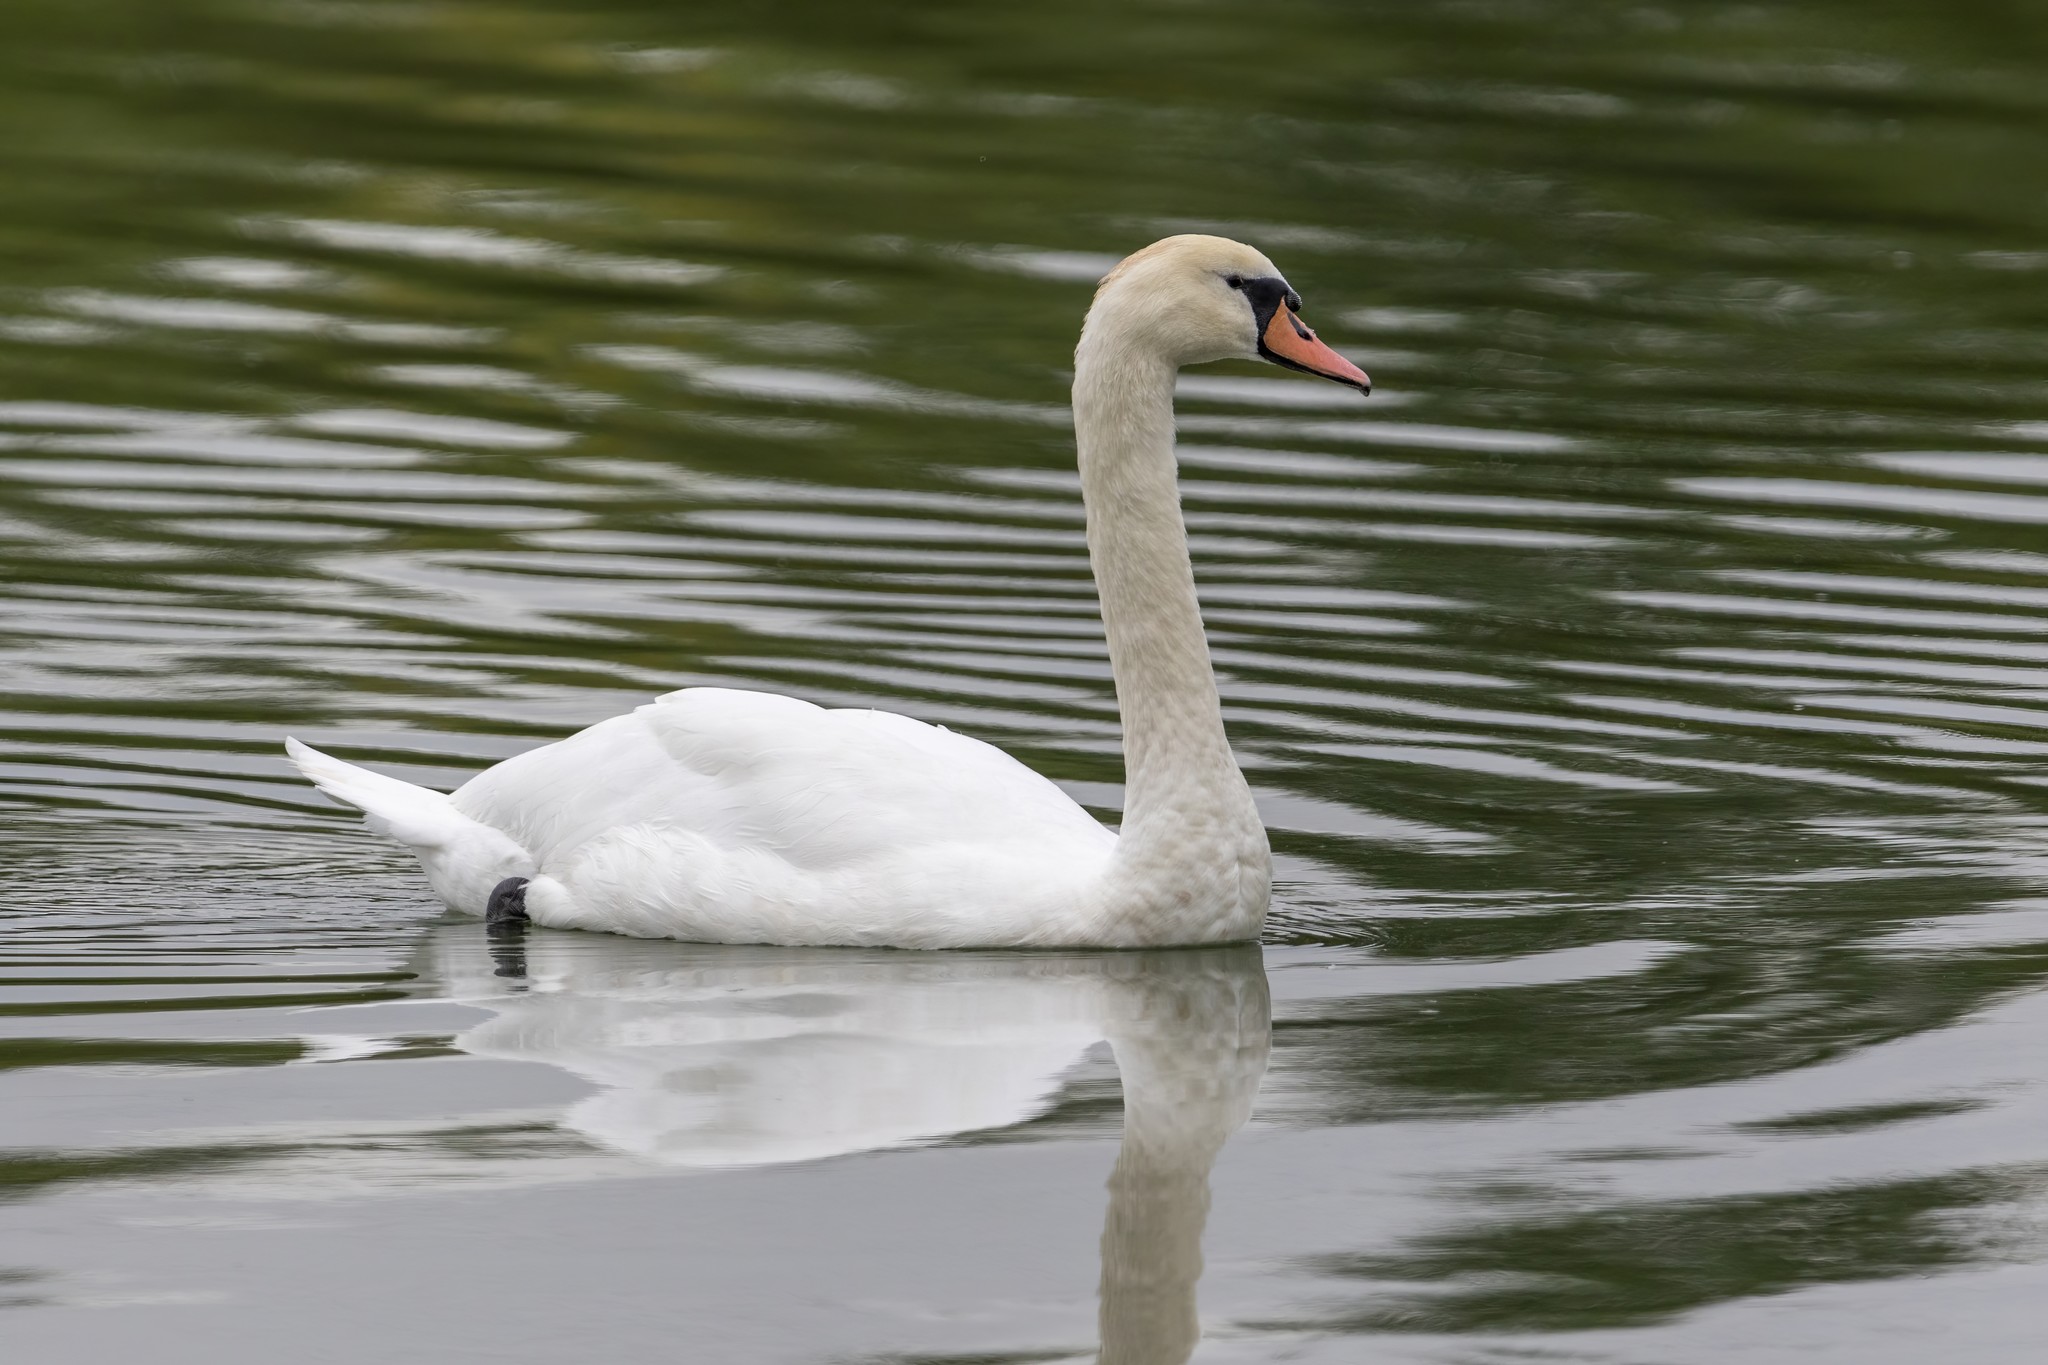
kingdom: Animalia
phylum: Chordata
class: Aves
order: Anseriformes
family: Anatidae
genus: Cygnus
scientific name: Cygnus olor
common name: Mute swan
